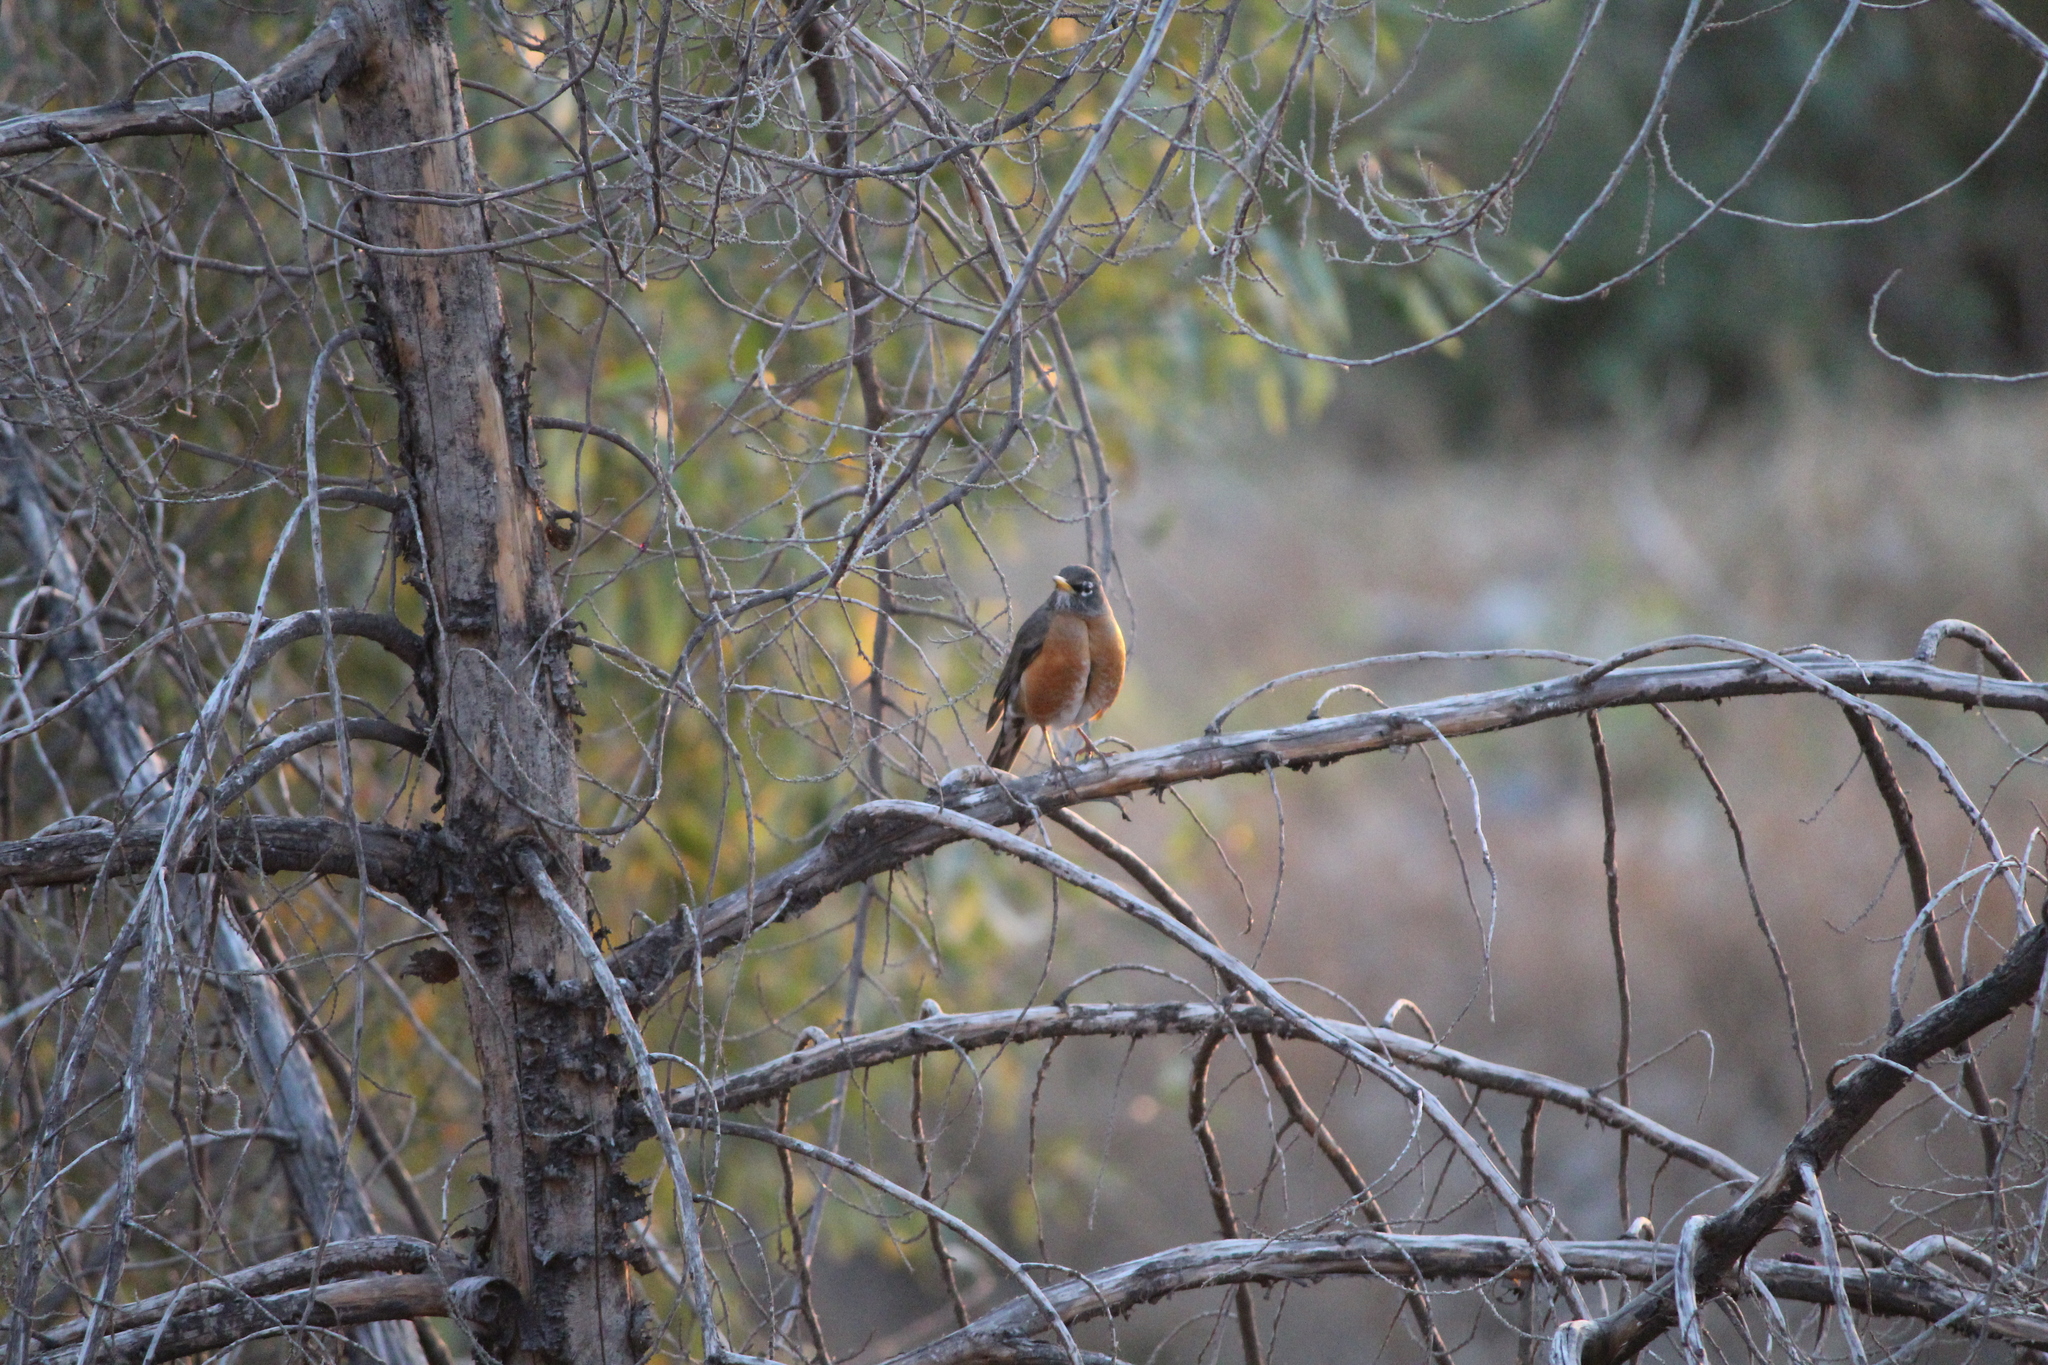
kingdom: Animalia
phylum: Chordata
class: Aves
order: Passeriformes
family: Turdidae
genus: Turdus
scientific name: Turdus migratorius
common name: American robin
